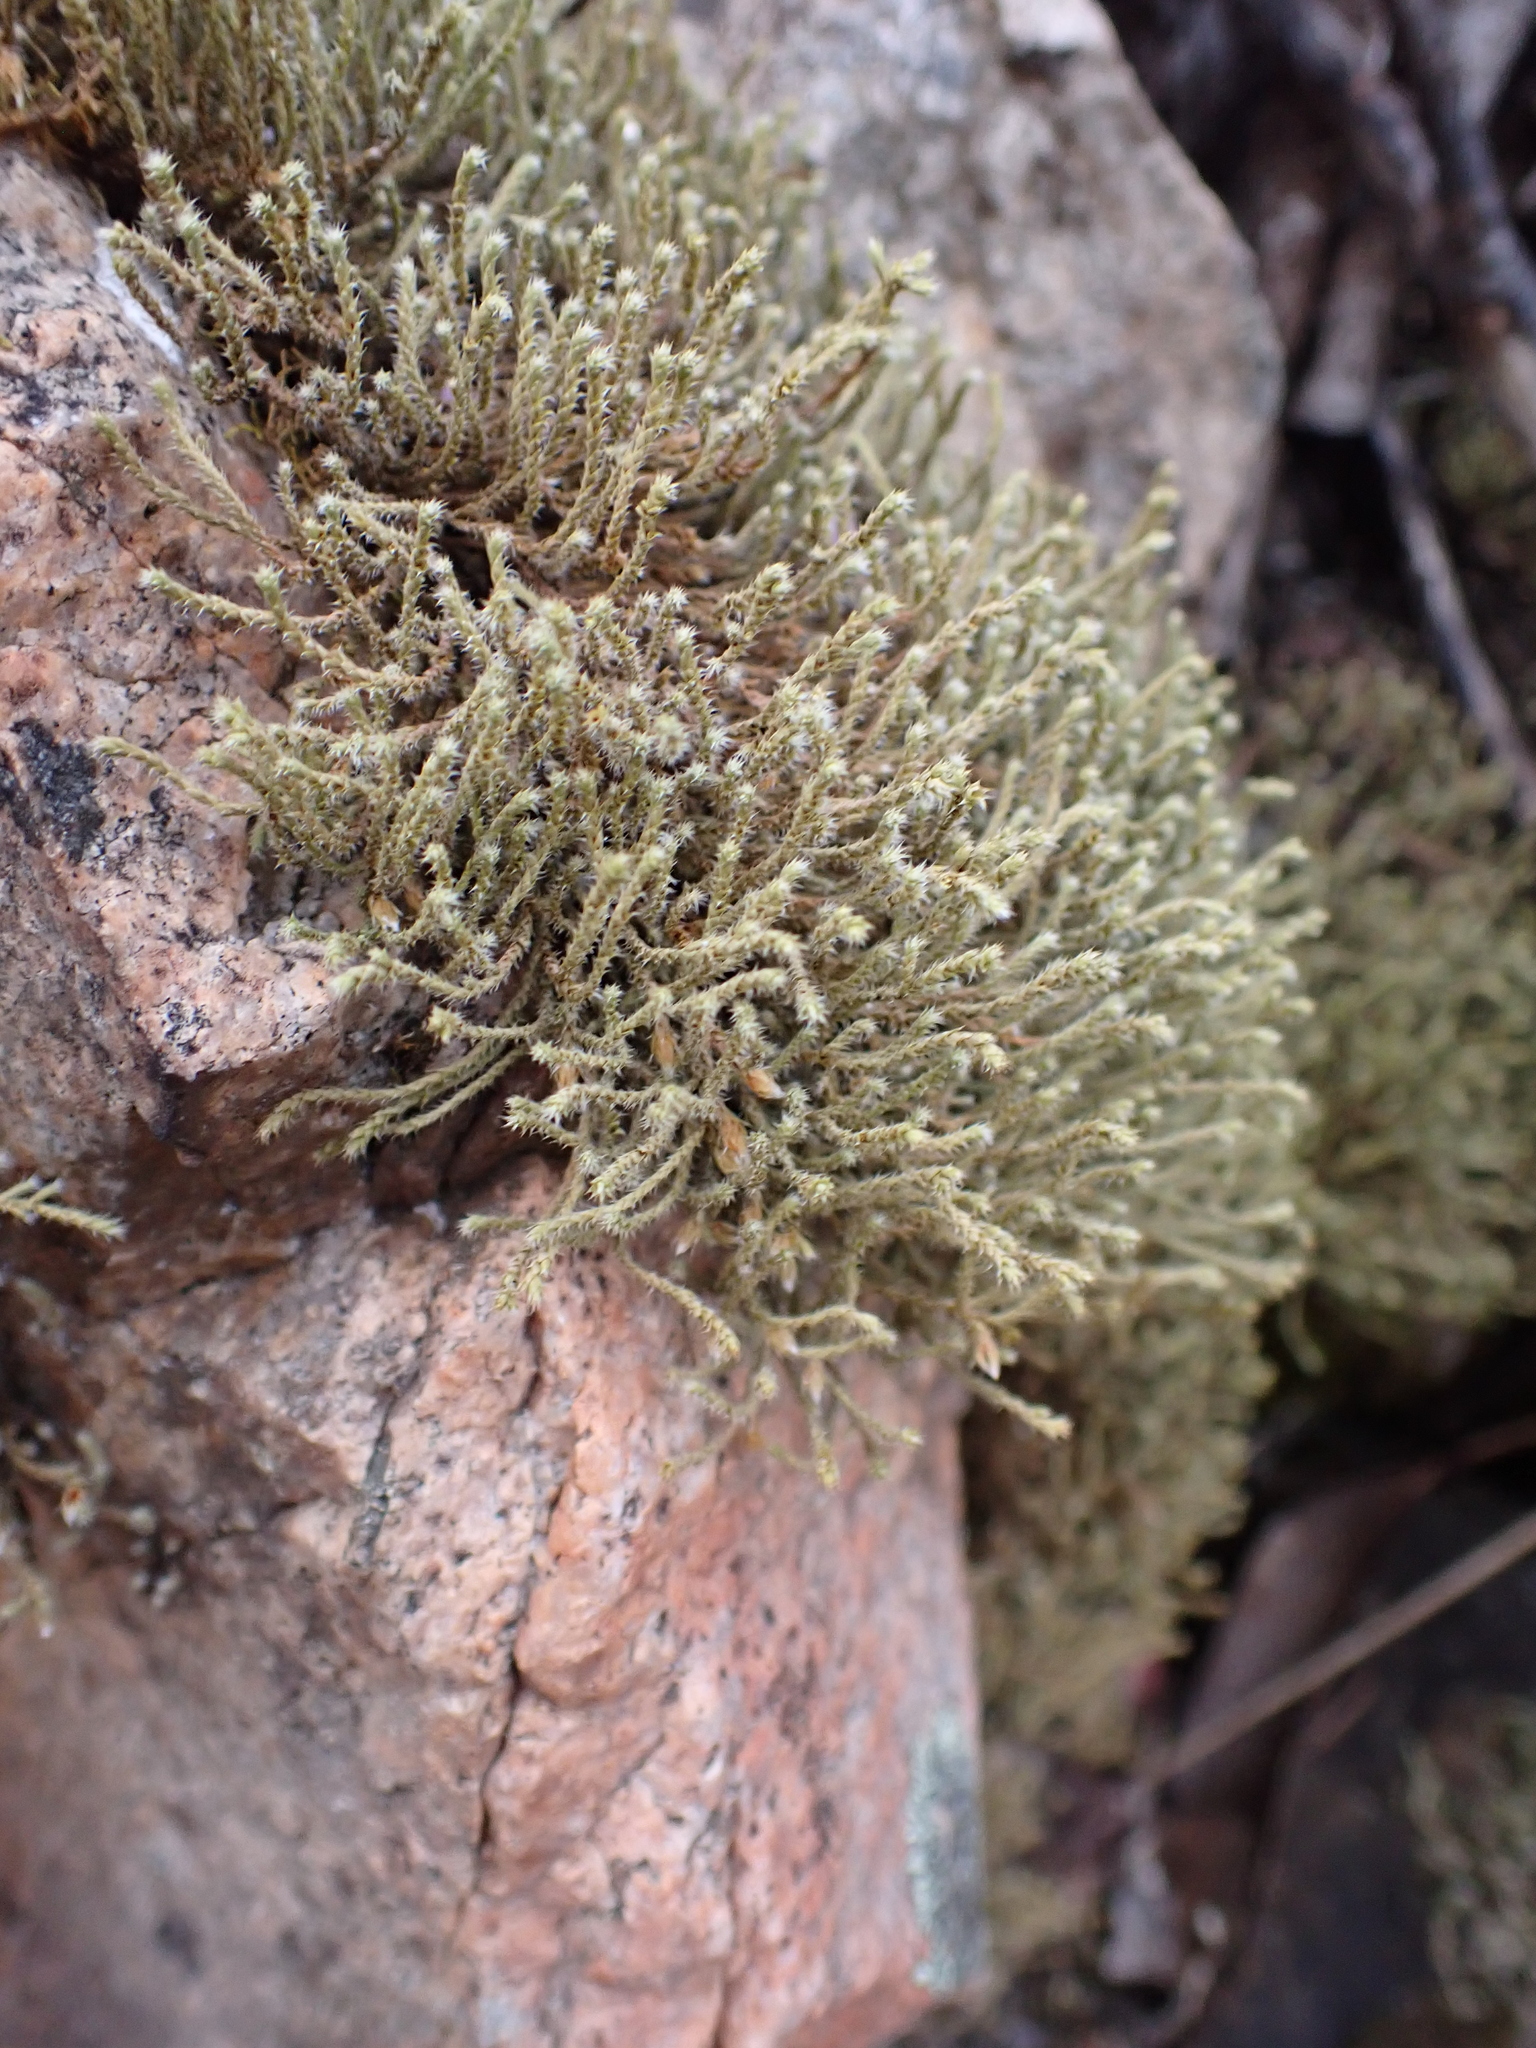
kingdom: Plantae
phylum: Bryophyta
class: Bryopsida
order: Hedwigiales
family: Hedwigiaceae
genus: Hedwigia
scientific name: Hedwigia ciliata
